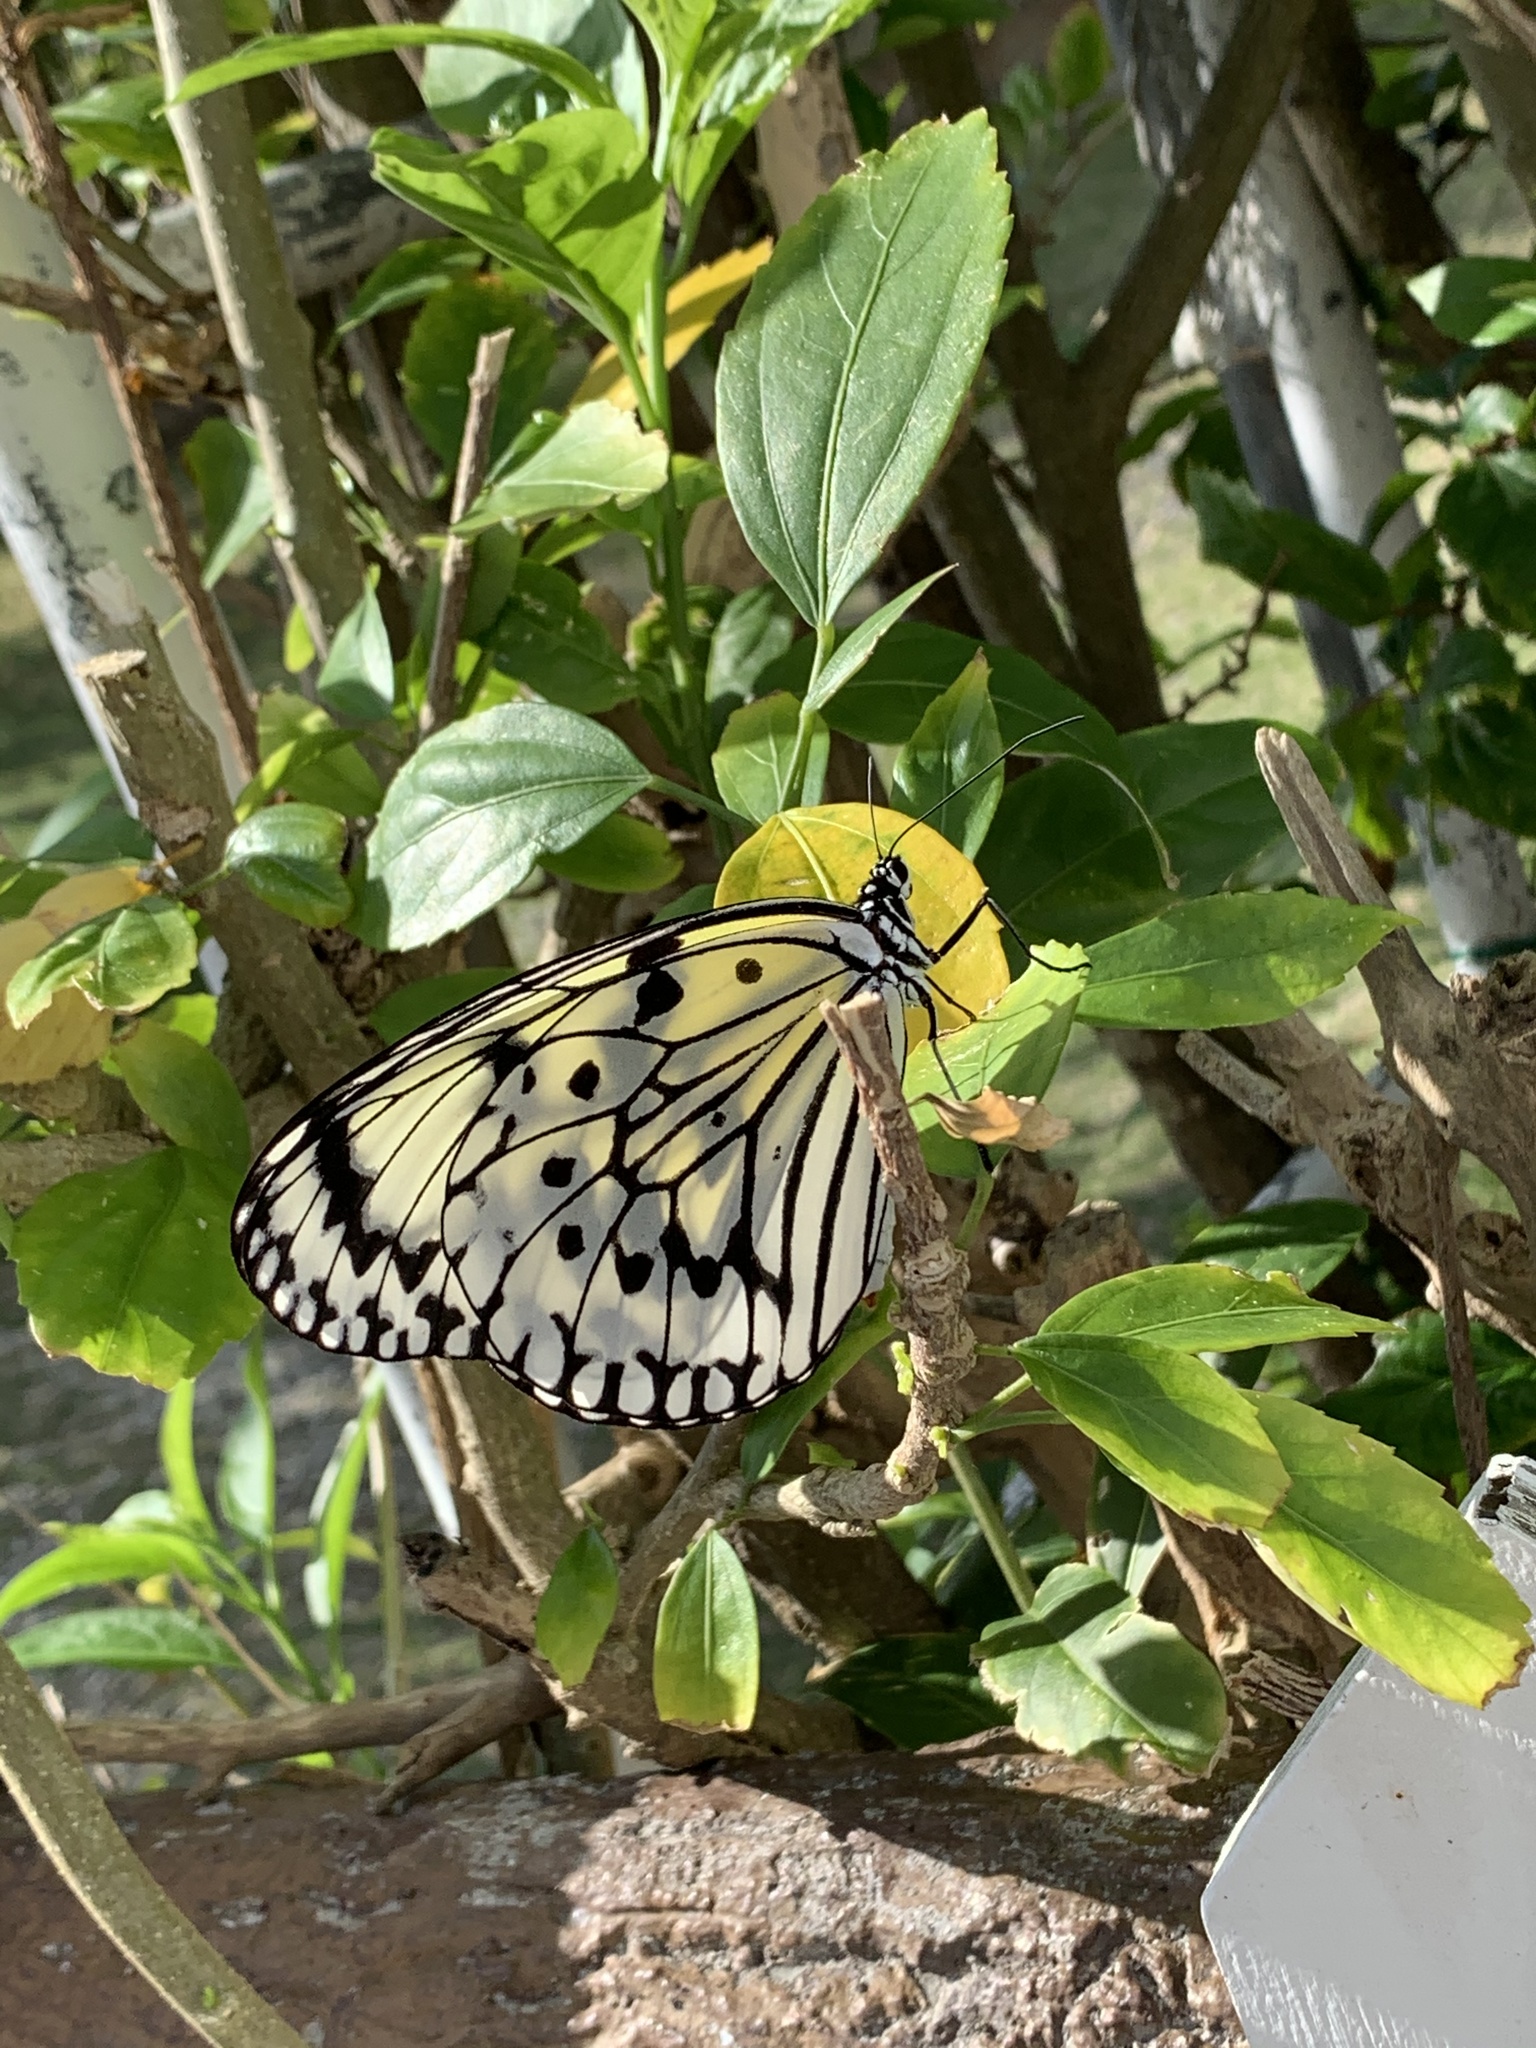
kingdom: Animalia
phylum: Arthropoda
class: Insecta
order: Lepidoptera
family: Nymphalidae
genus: Idea
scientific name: Idea leuconoe
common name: Rice paper butterfly
